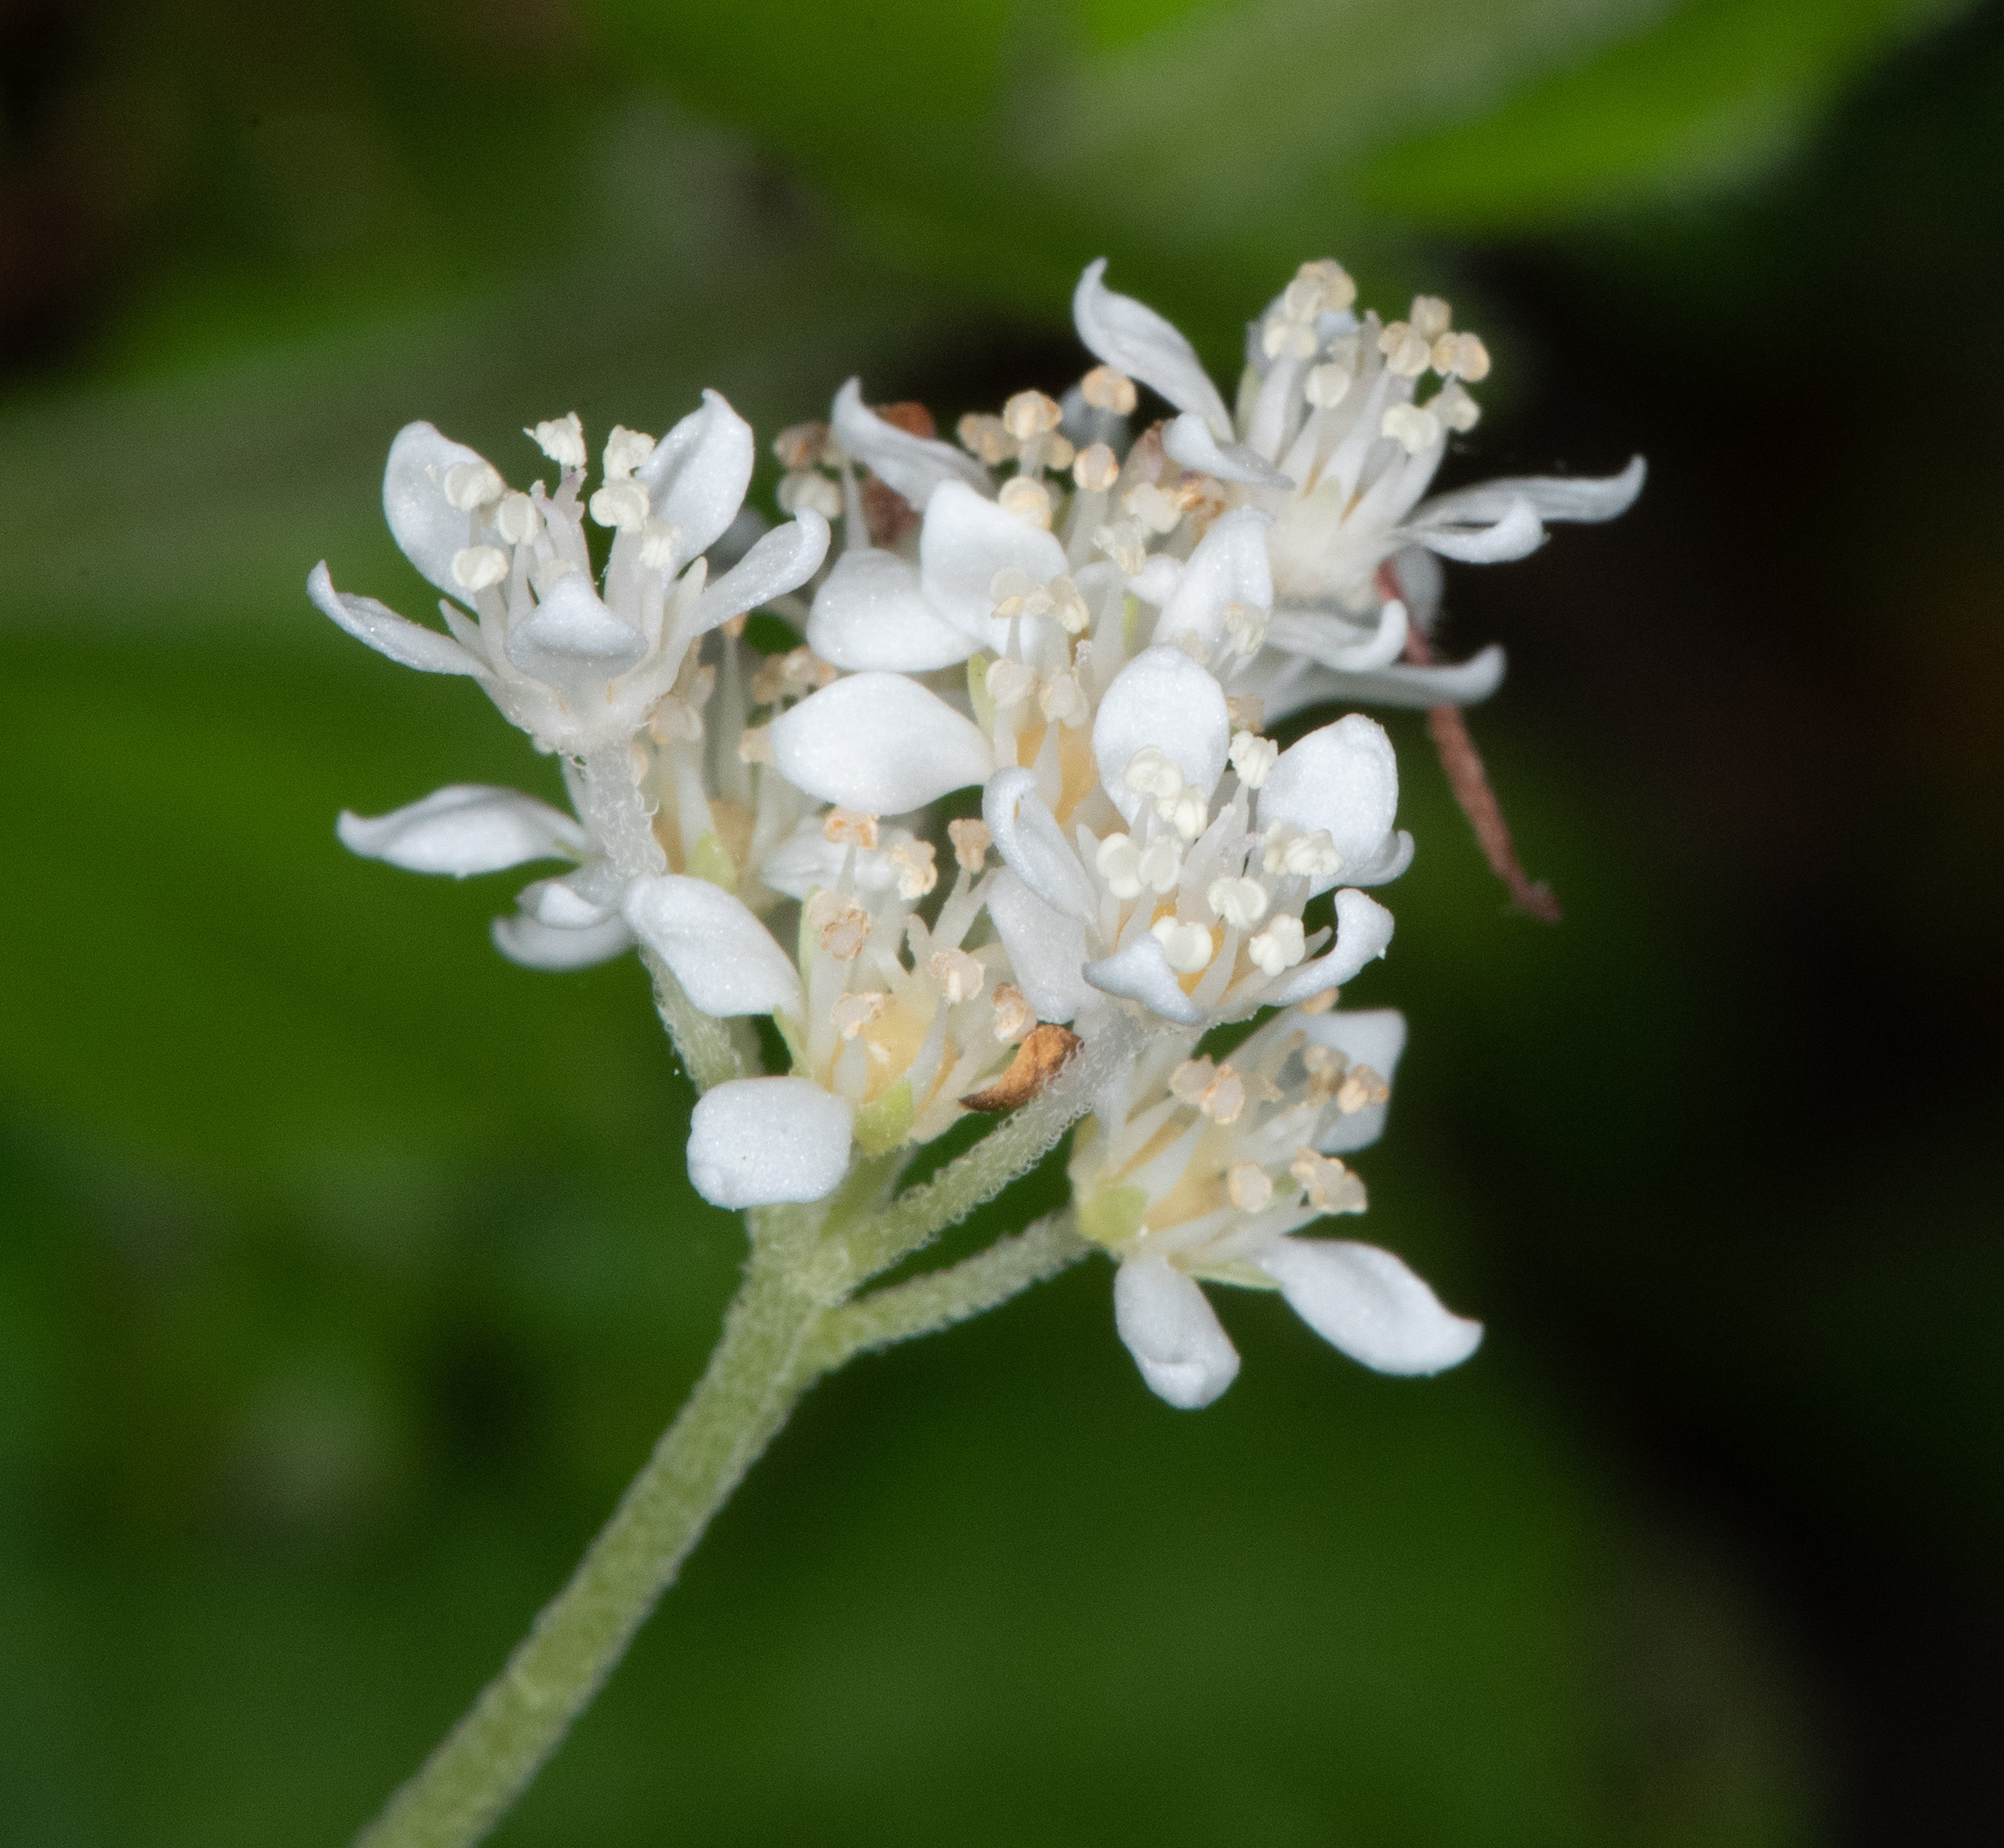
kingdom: Plantae
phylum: Tracheophyta
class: Magnoliopsida
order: Cornales
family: Hydrangeaceae
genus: Whipplea
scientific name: Whipplea modesta
